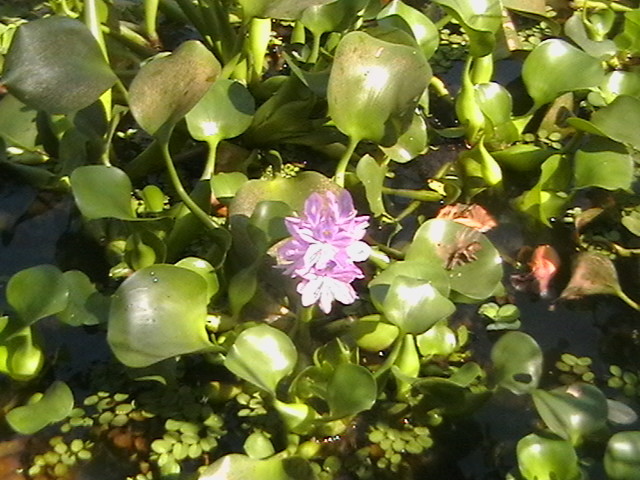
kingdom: Plantae
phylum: Tracheophyta
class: Liliopsida
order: Commelinales
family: Pontederiaceae
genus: Pontederia
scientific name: Pontederia crassipes
